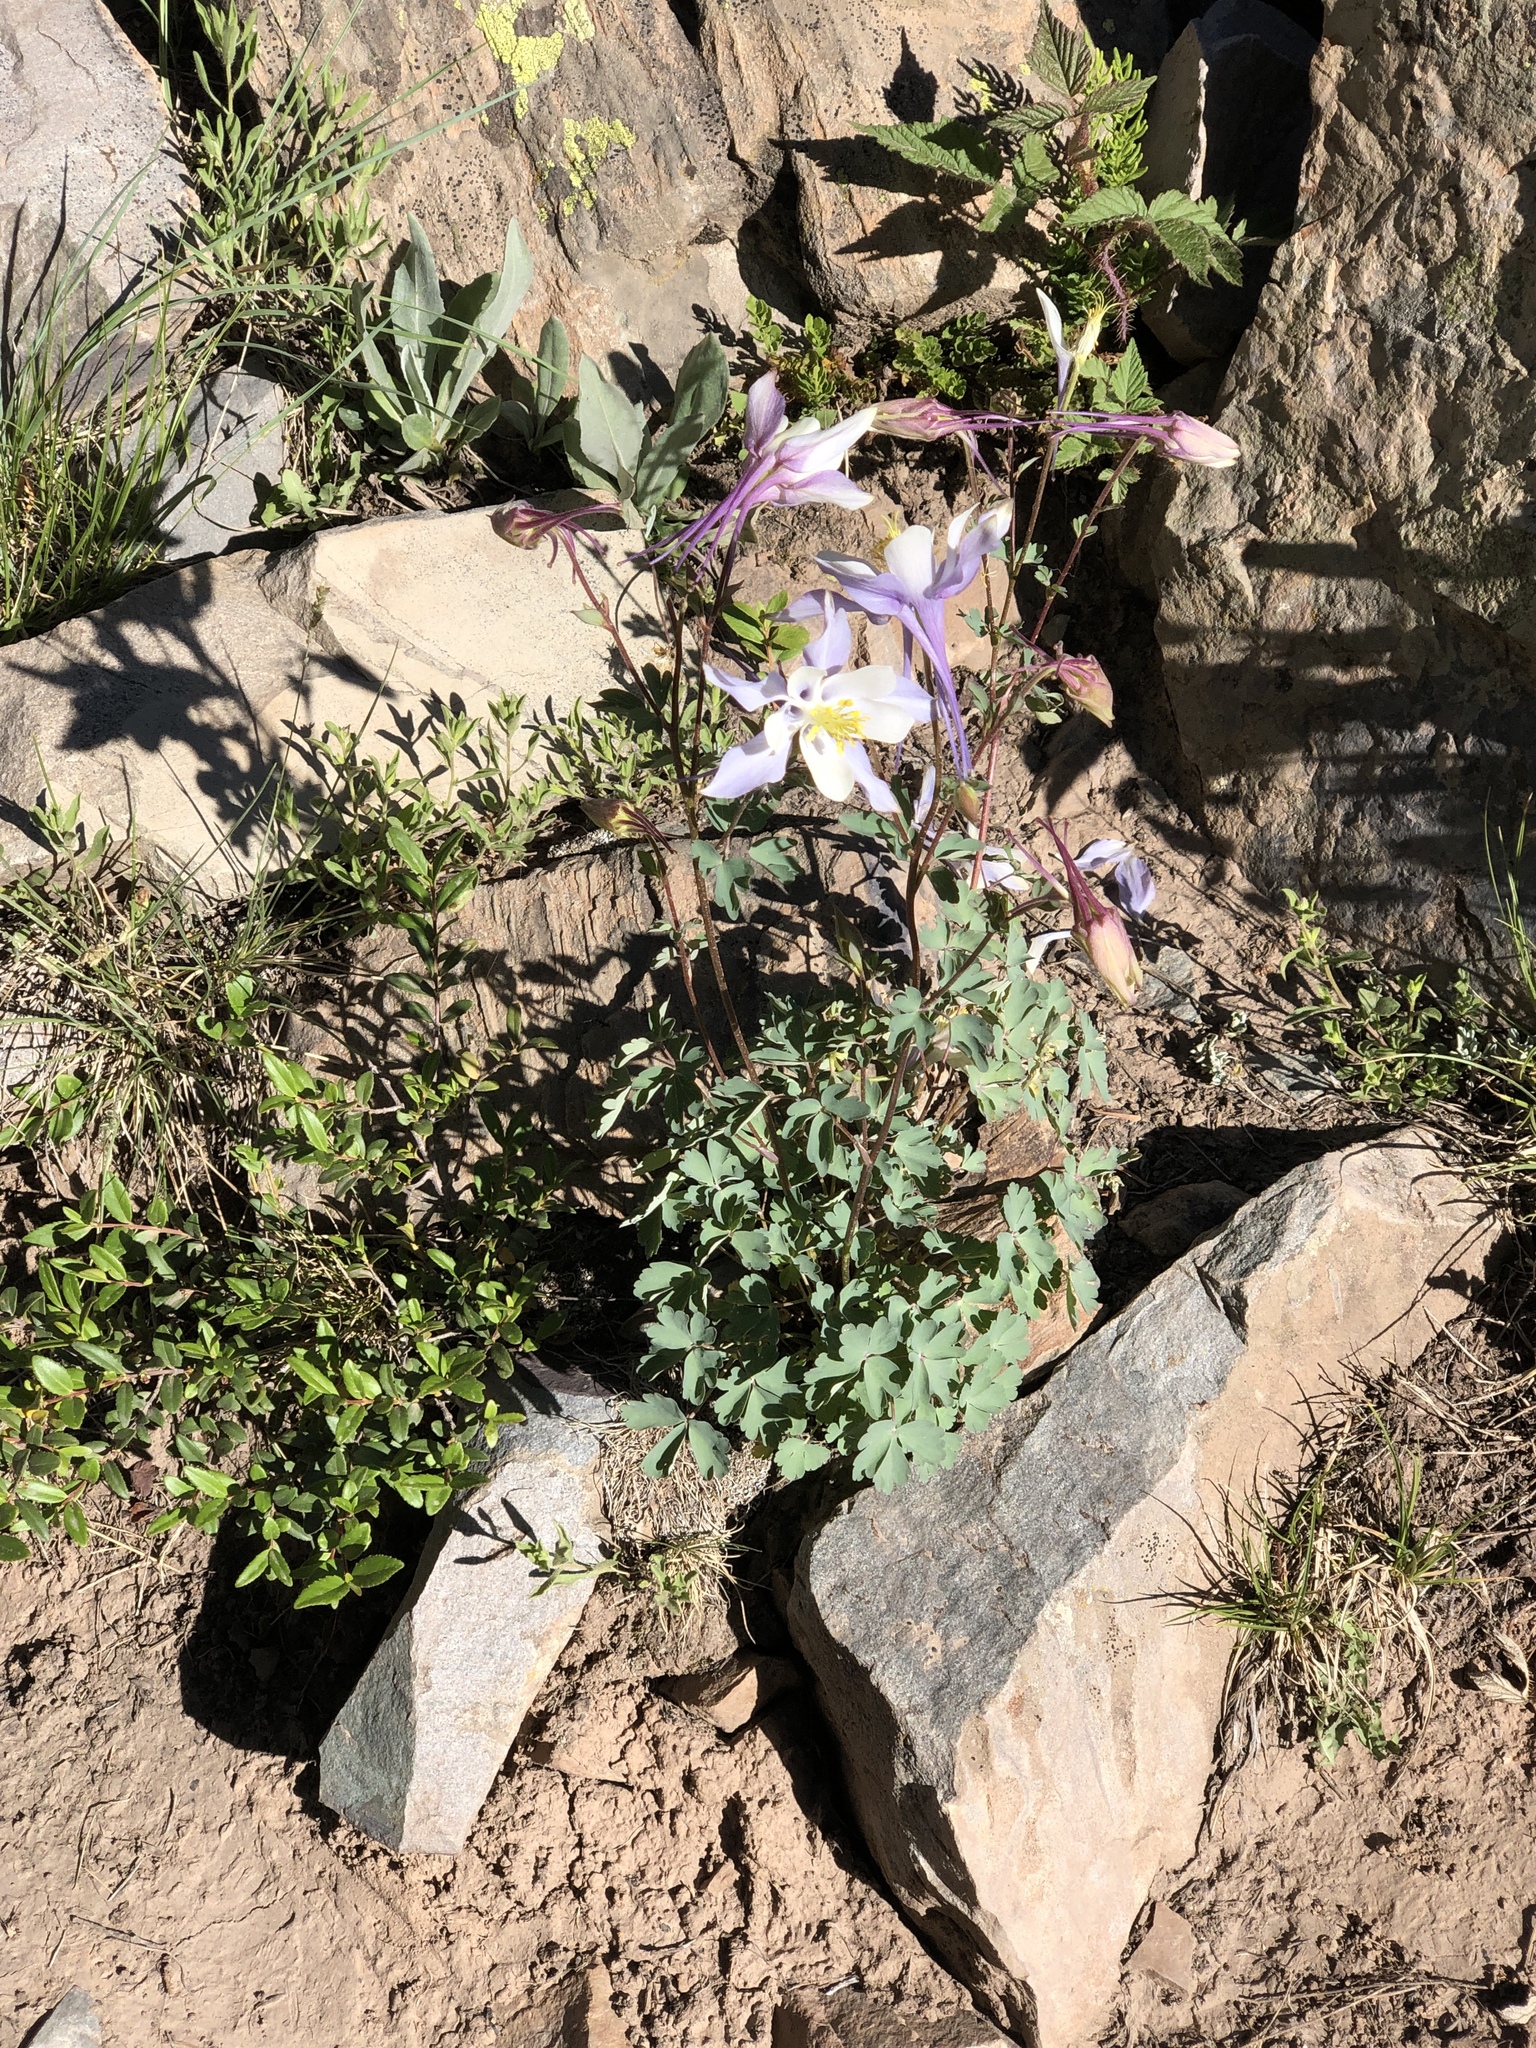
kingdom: Plantae
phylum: Tracheophyta
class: Magnoliopsida
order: Ranunculales
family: Ranunculaceae
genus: Aquilegia
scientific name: Aquilegia coerulea
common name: Rocky mountain columbine
